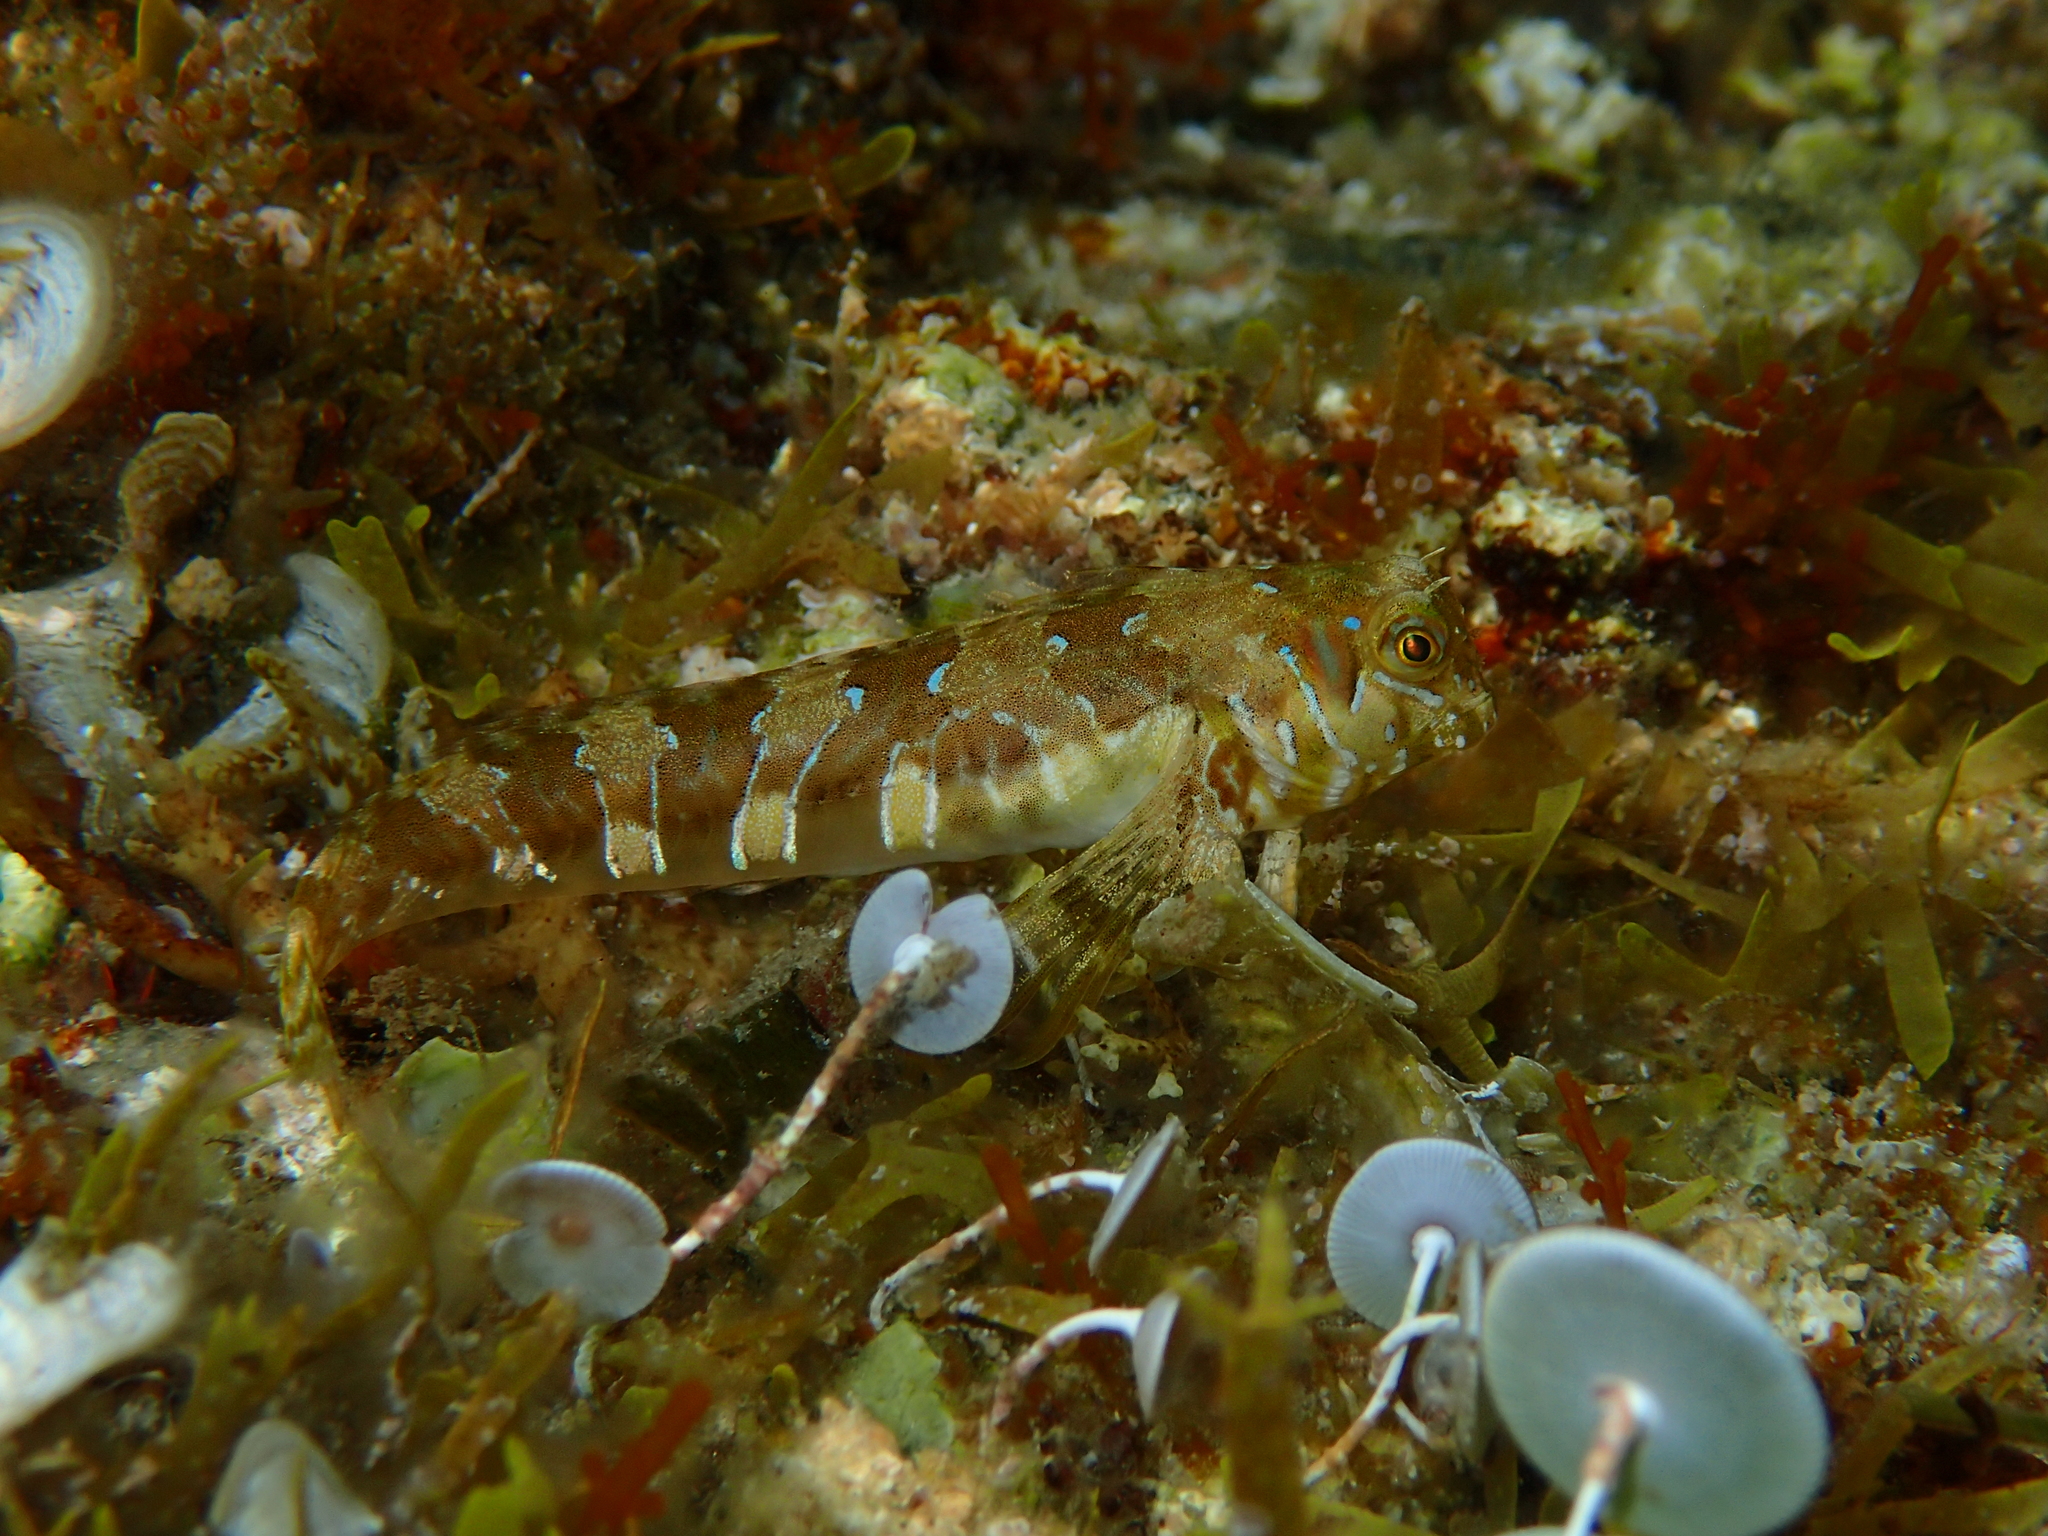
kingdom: Animalia
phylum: Chordata
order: Perciformes
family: Blenniidae
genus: Aidablennius
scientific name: Aidablennius sphynx
